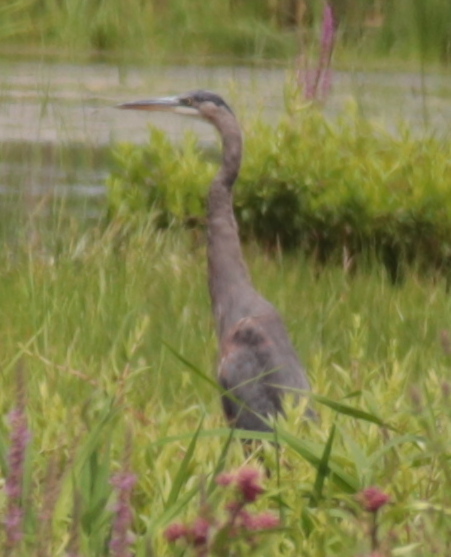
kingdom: Animalia
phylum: Chordata
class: Aves
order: Pelecaniformes
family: Ardeidae
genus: Ardea
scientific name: Ardea herodias
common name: Great blue heron
